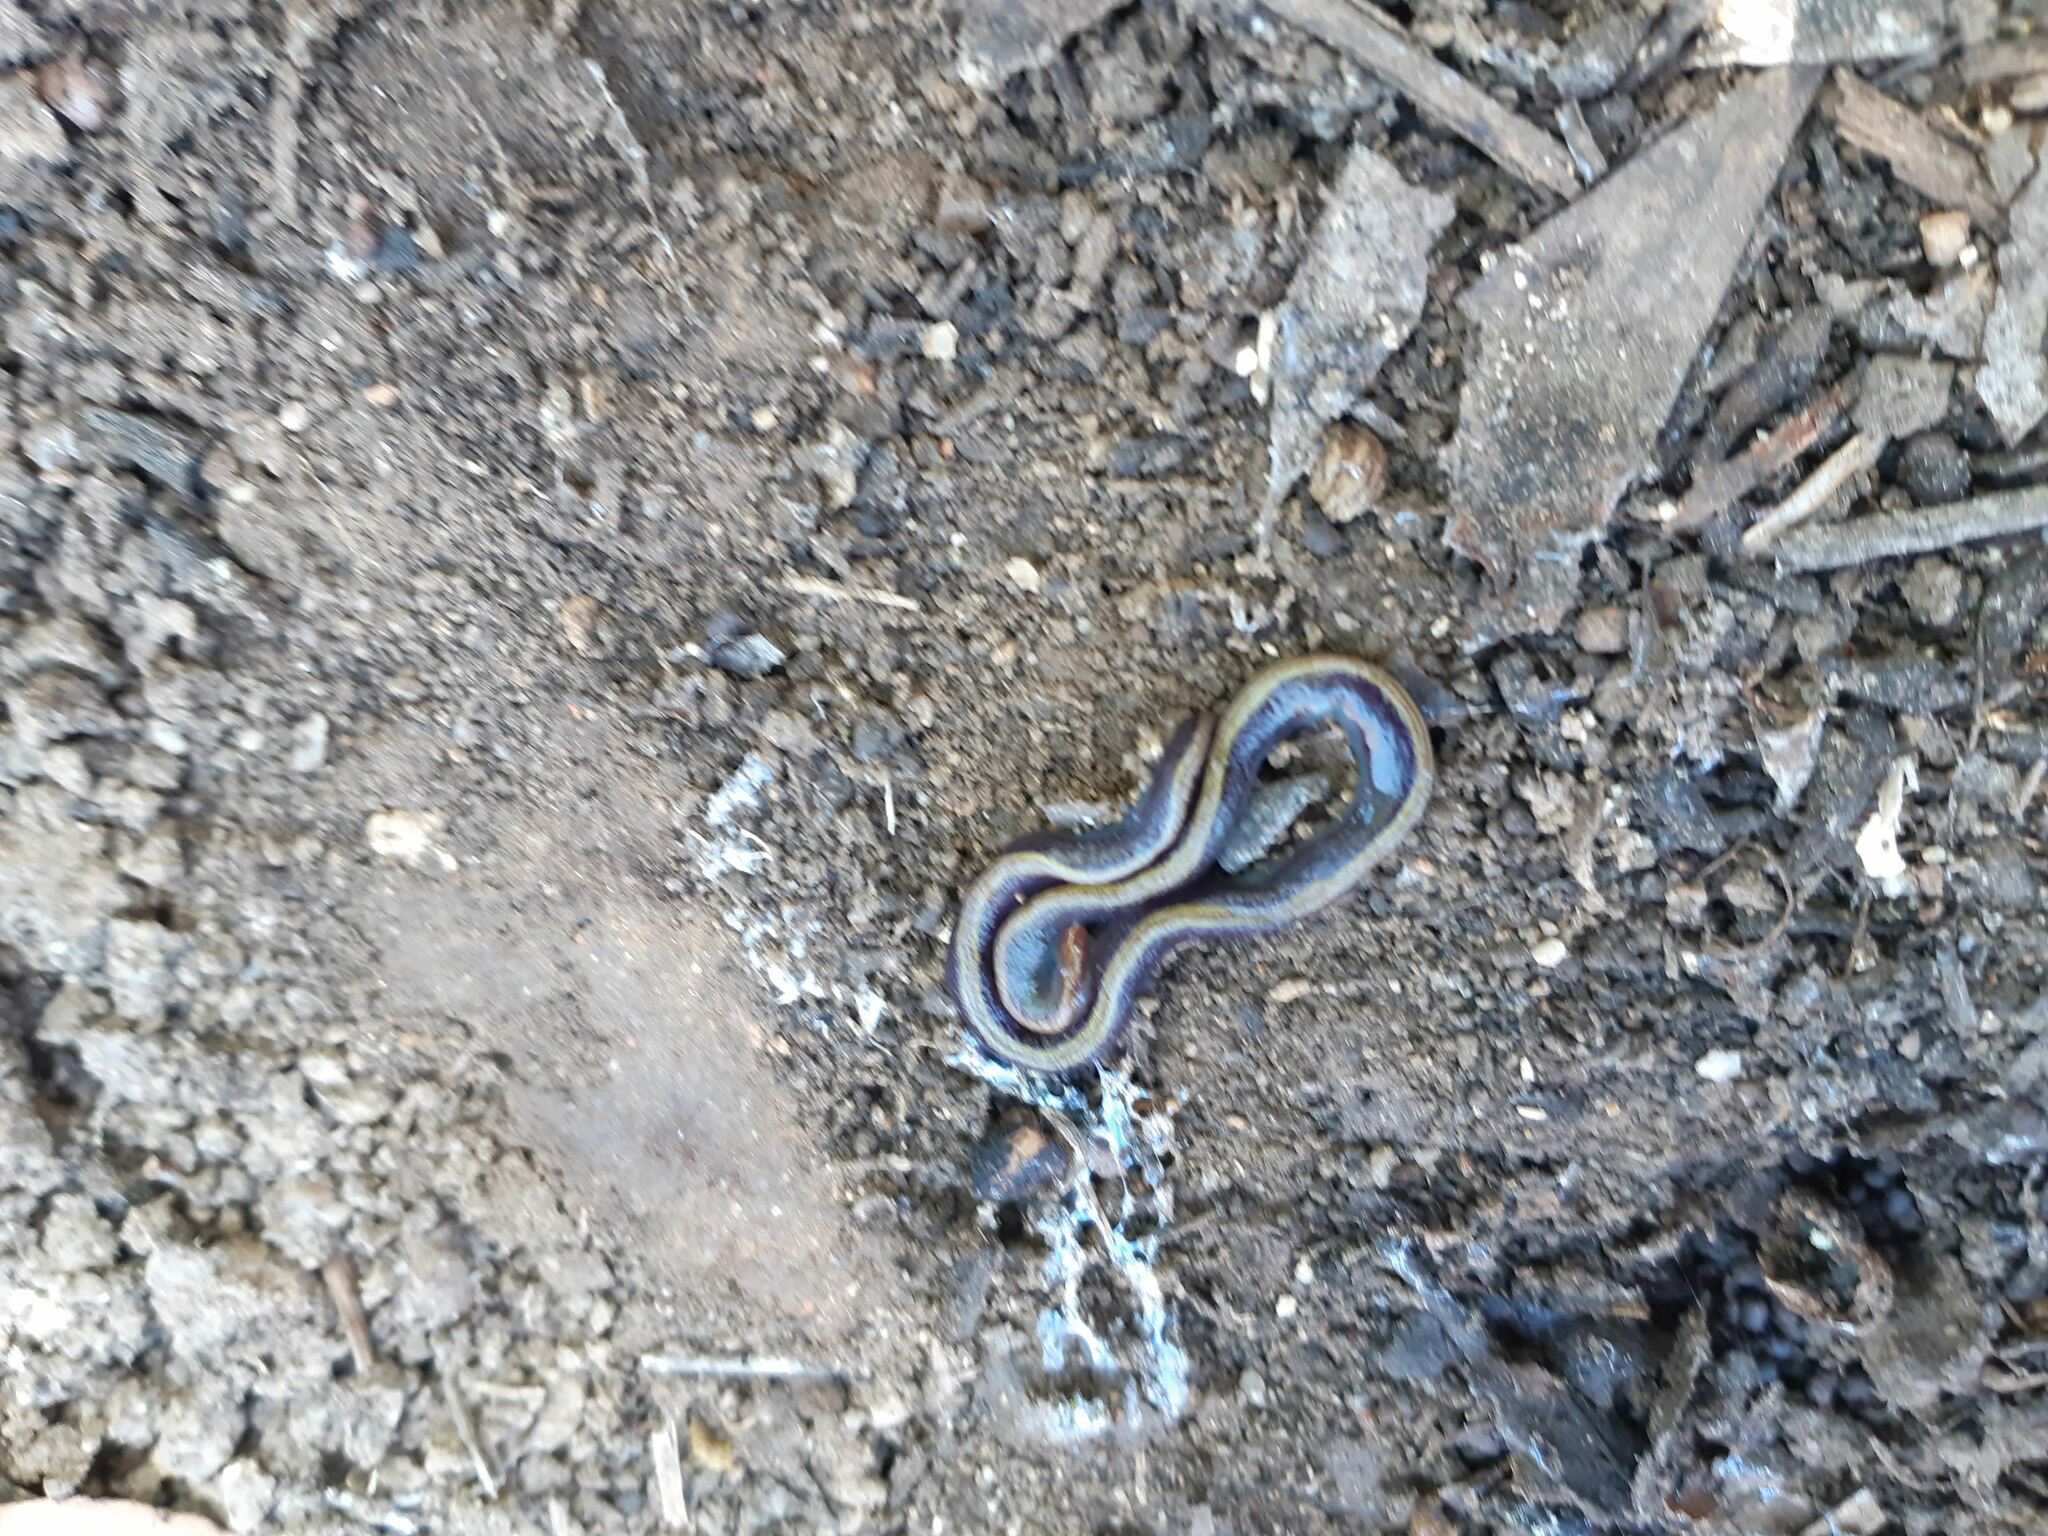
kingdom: Animalia
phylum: Platyhelminthes
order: Tricladida
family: Geoplanidae
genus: Caenoplana
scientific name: Caenoplana coerulea
